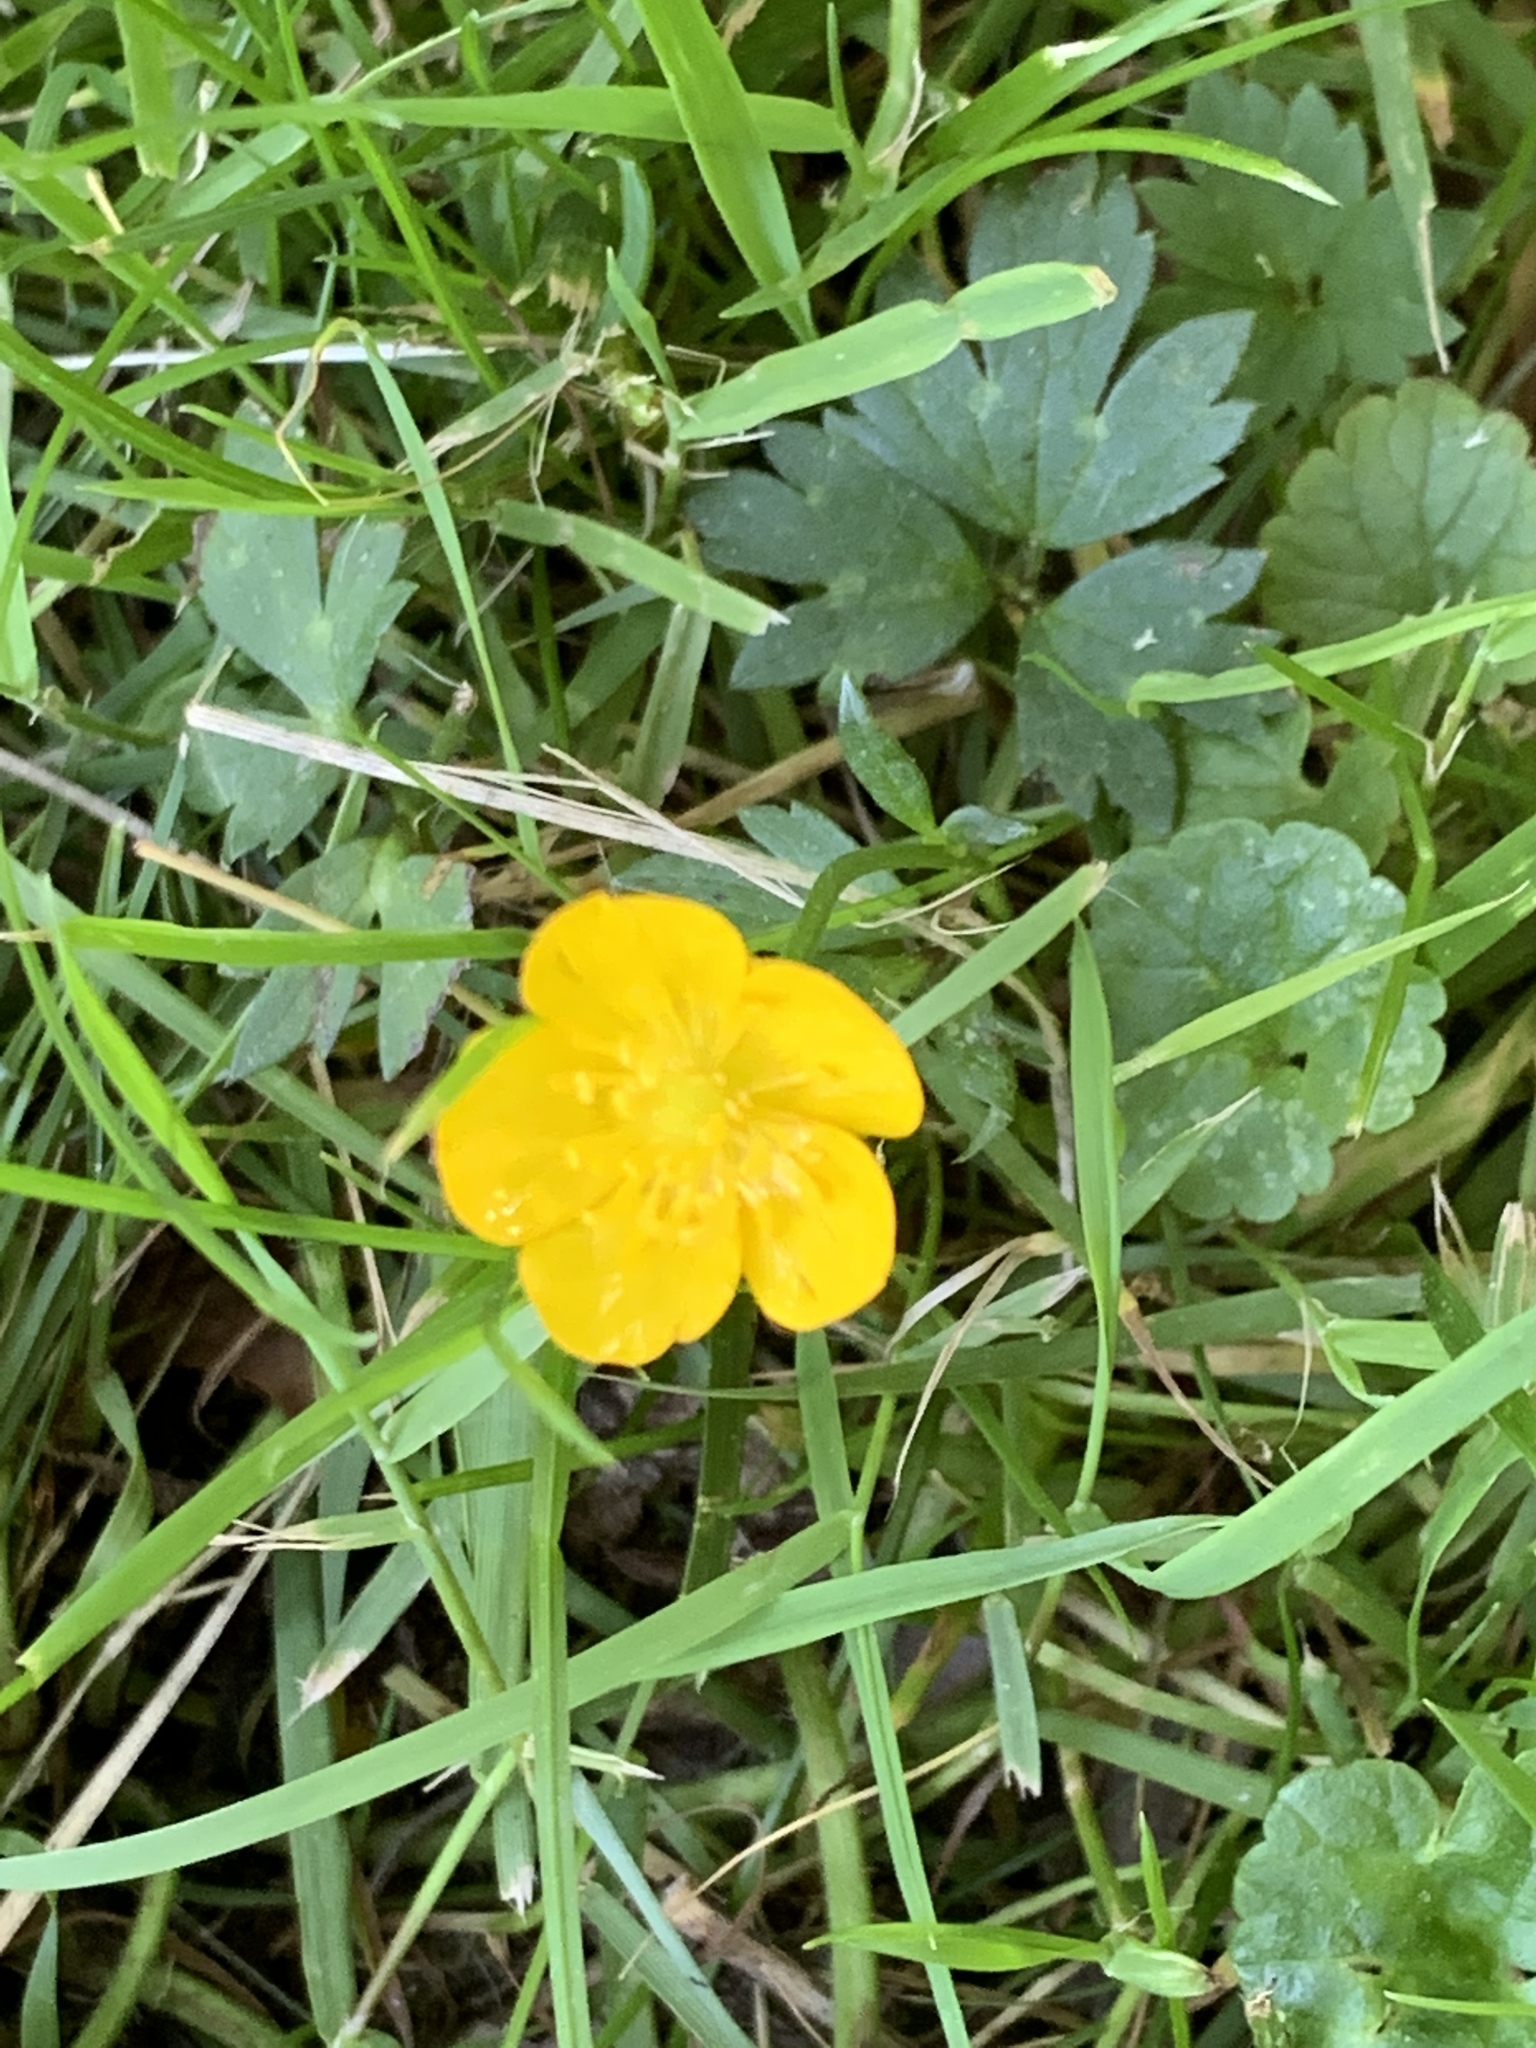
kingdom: Plantae
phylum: Tracheophyta
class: Magnoliopsida
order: Ranunculales
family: Ranunculaceae
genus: Ranunculus
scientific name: Ranunculus repens
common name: Creeping buttercup
